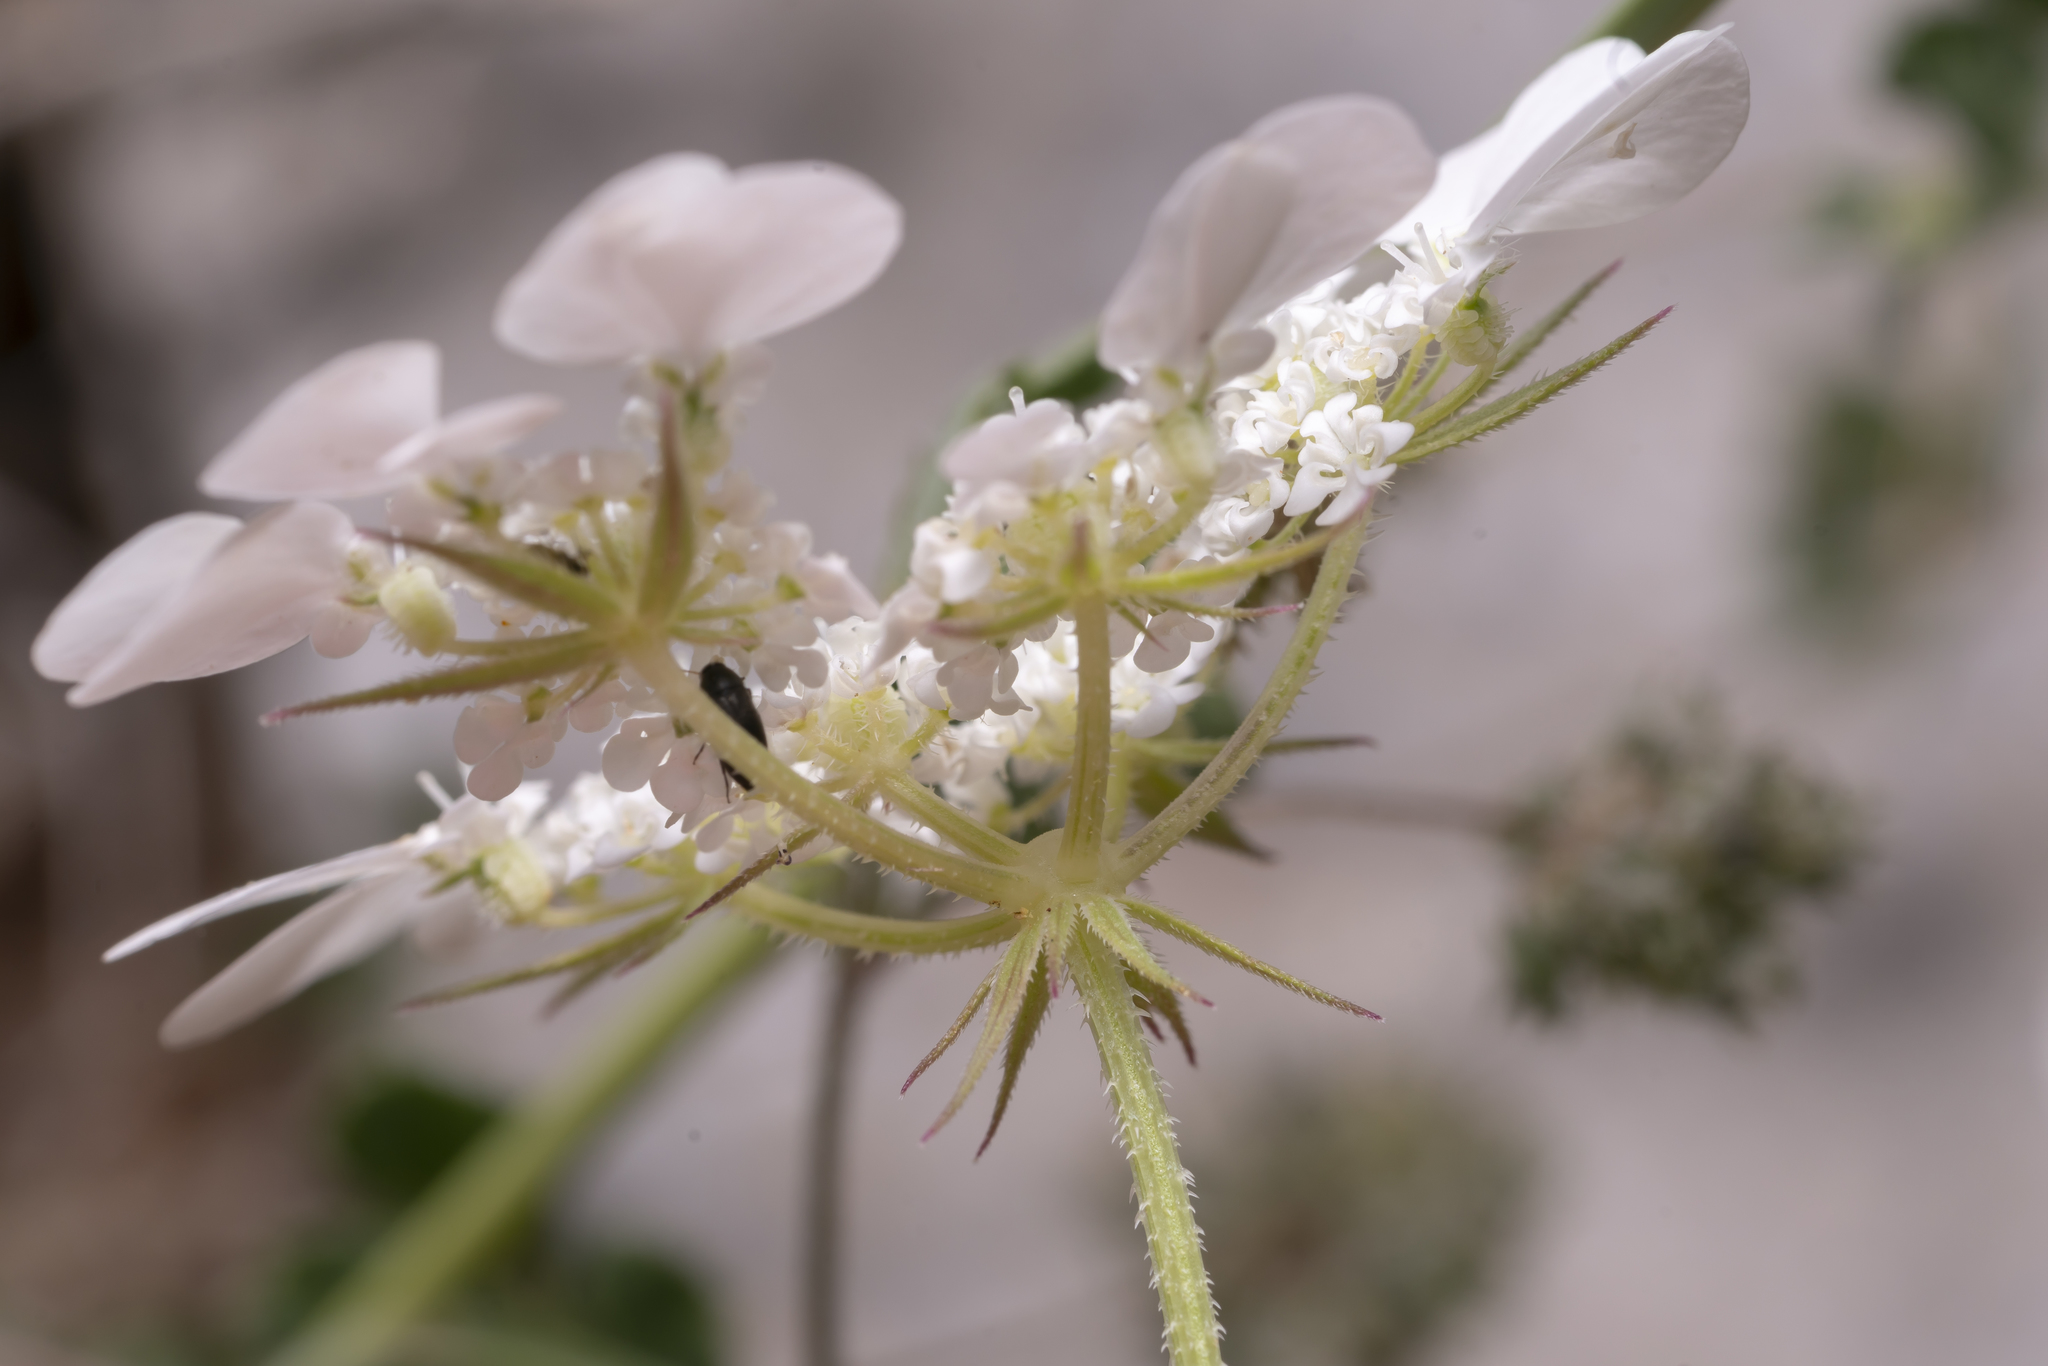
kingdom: Plantae
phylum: Tracheophyta
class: Magnoliopsida
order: Apiales
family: Apiaceae
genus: Tordylium
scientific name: Tordylium aegaeum
